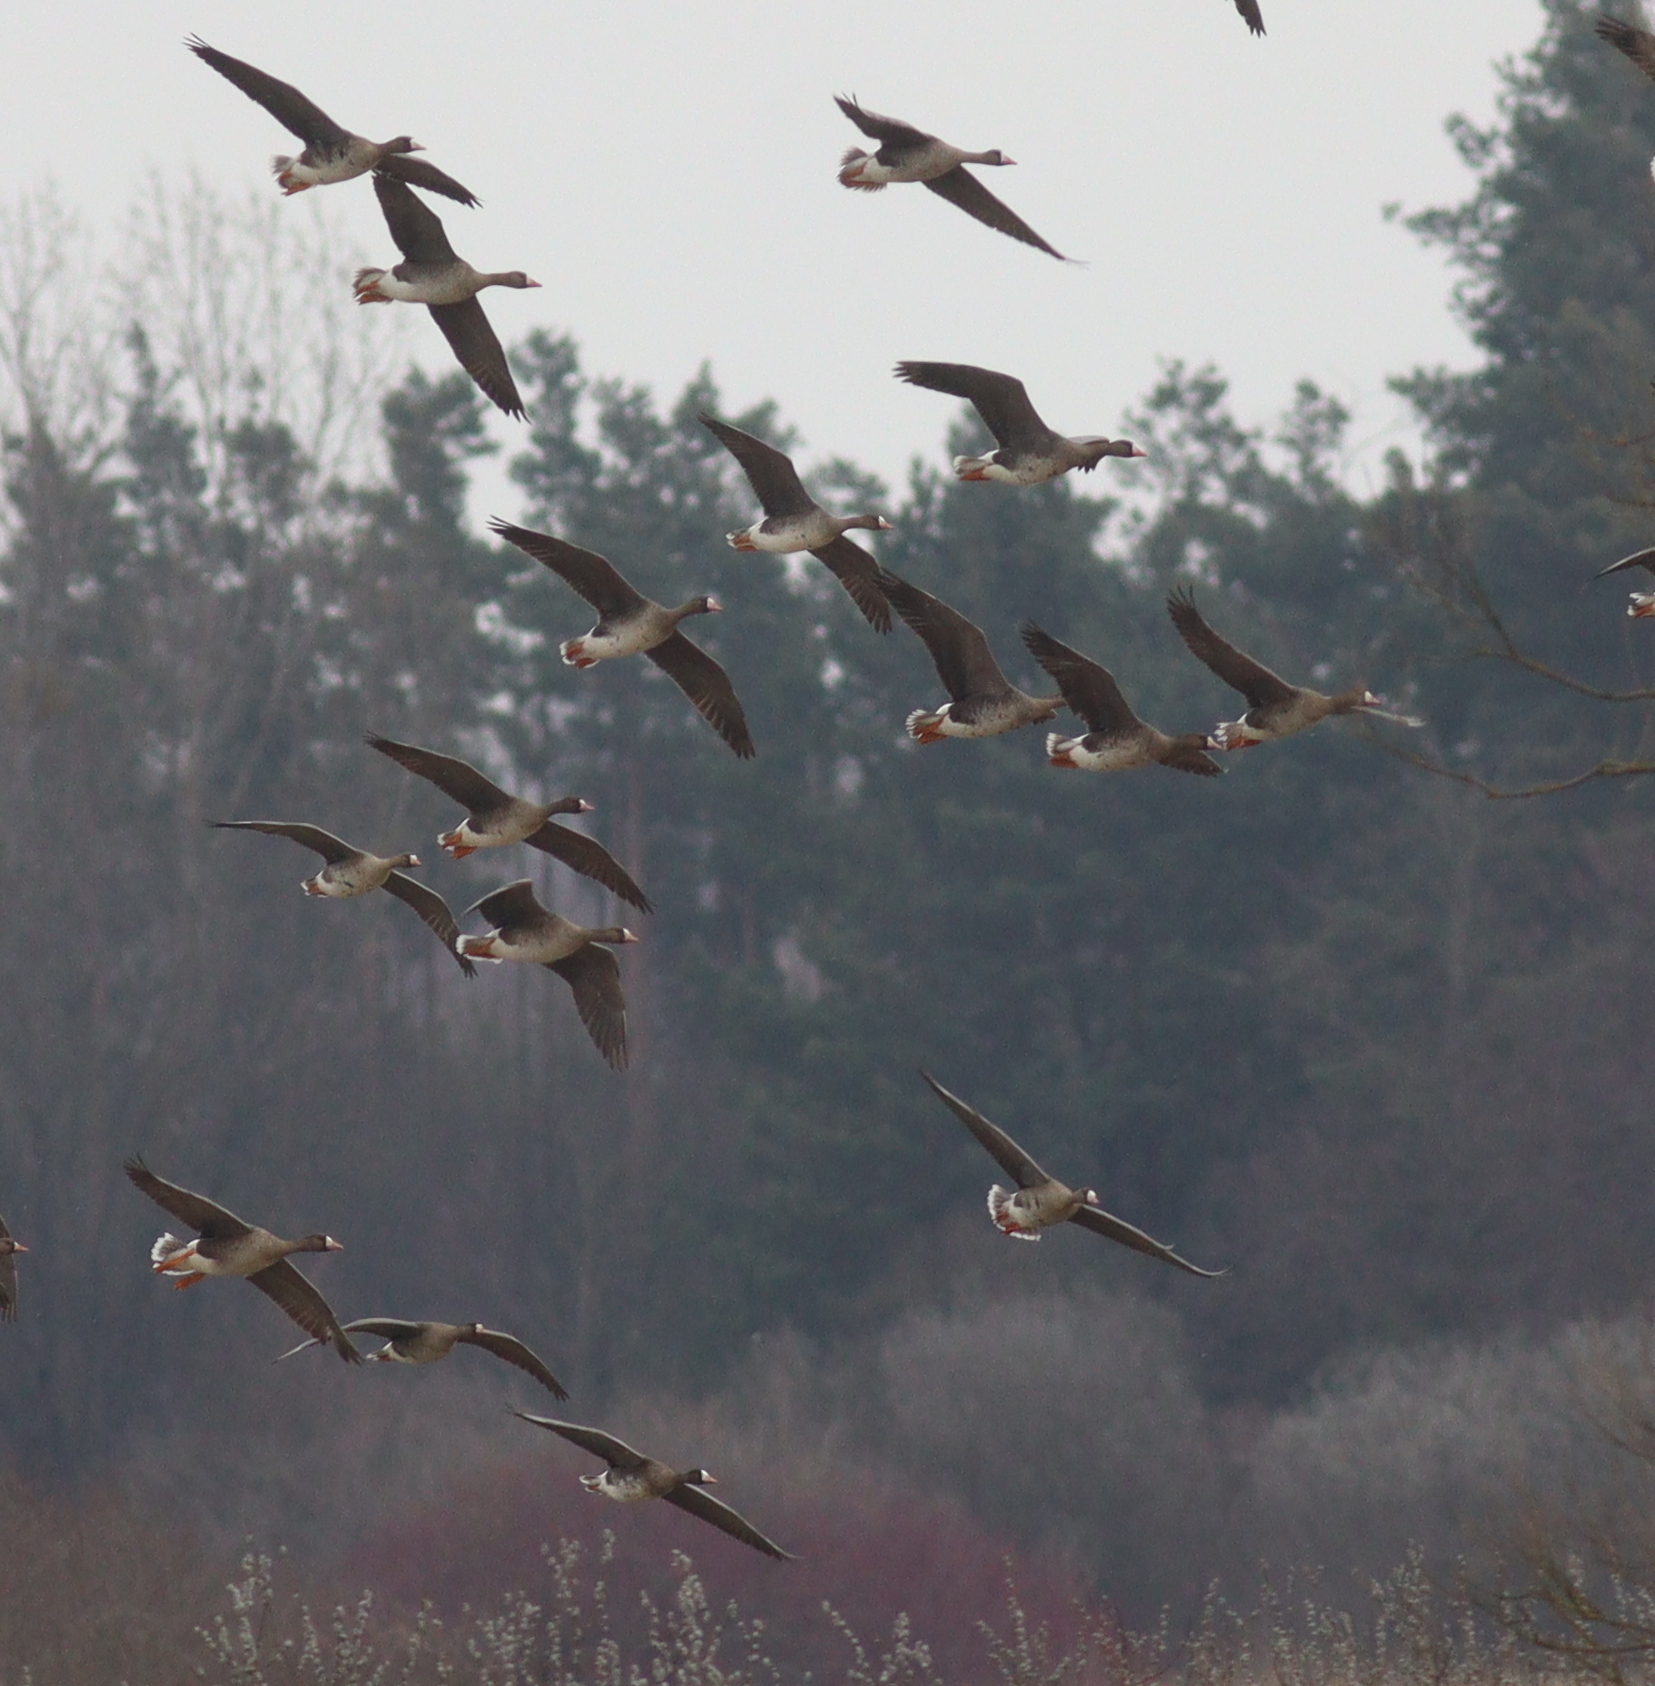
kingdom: Animalia
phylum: Chordata
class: Aves
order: Anseriformes
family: Anatidae
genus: Anser
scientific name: Anser albifrons
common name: Greater white-fronted goose
